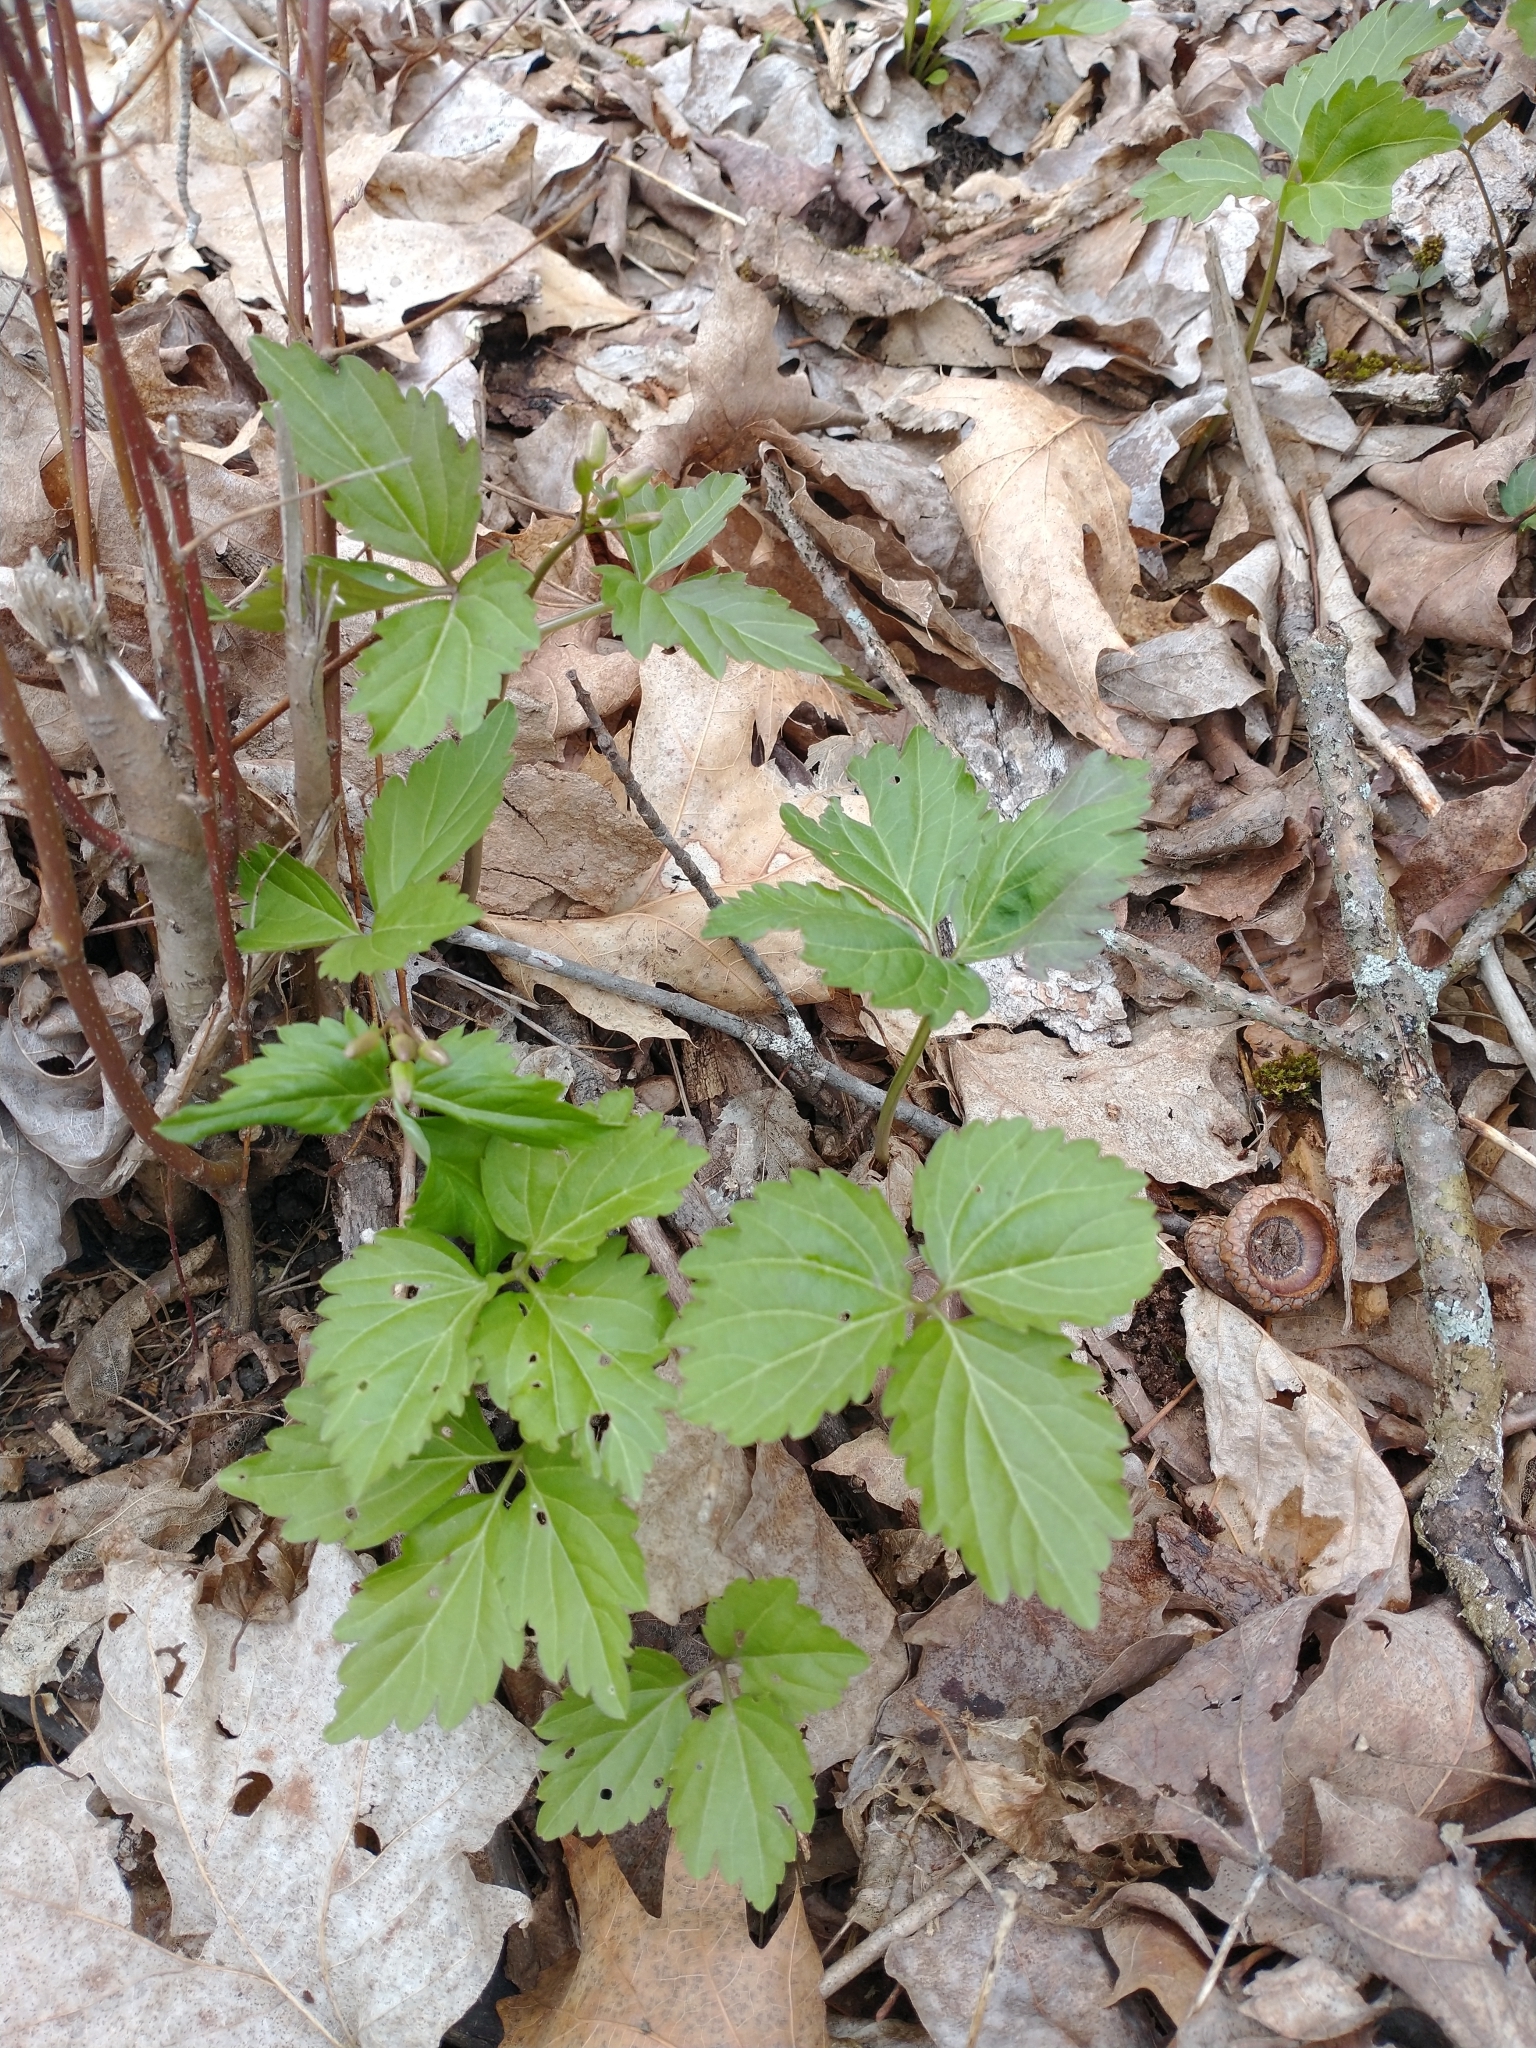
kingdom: Plantae
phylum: Tracheophyta
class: Magnoliopsida
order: Brassicales
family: Brassicaceae
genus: Cardamine
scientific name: Cardamine diphylla
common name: Broad-leaved toothwort
